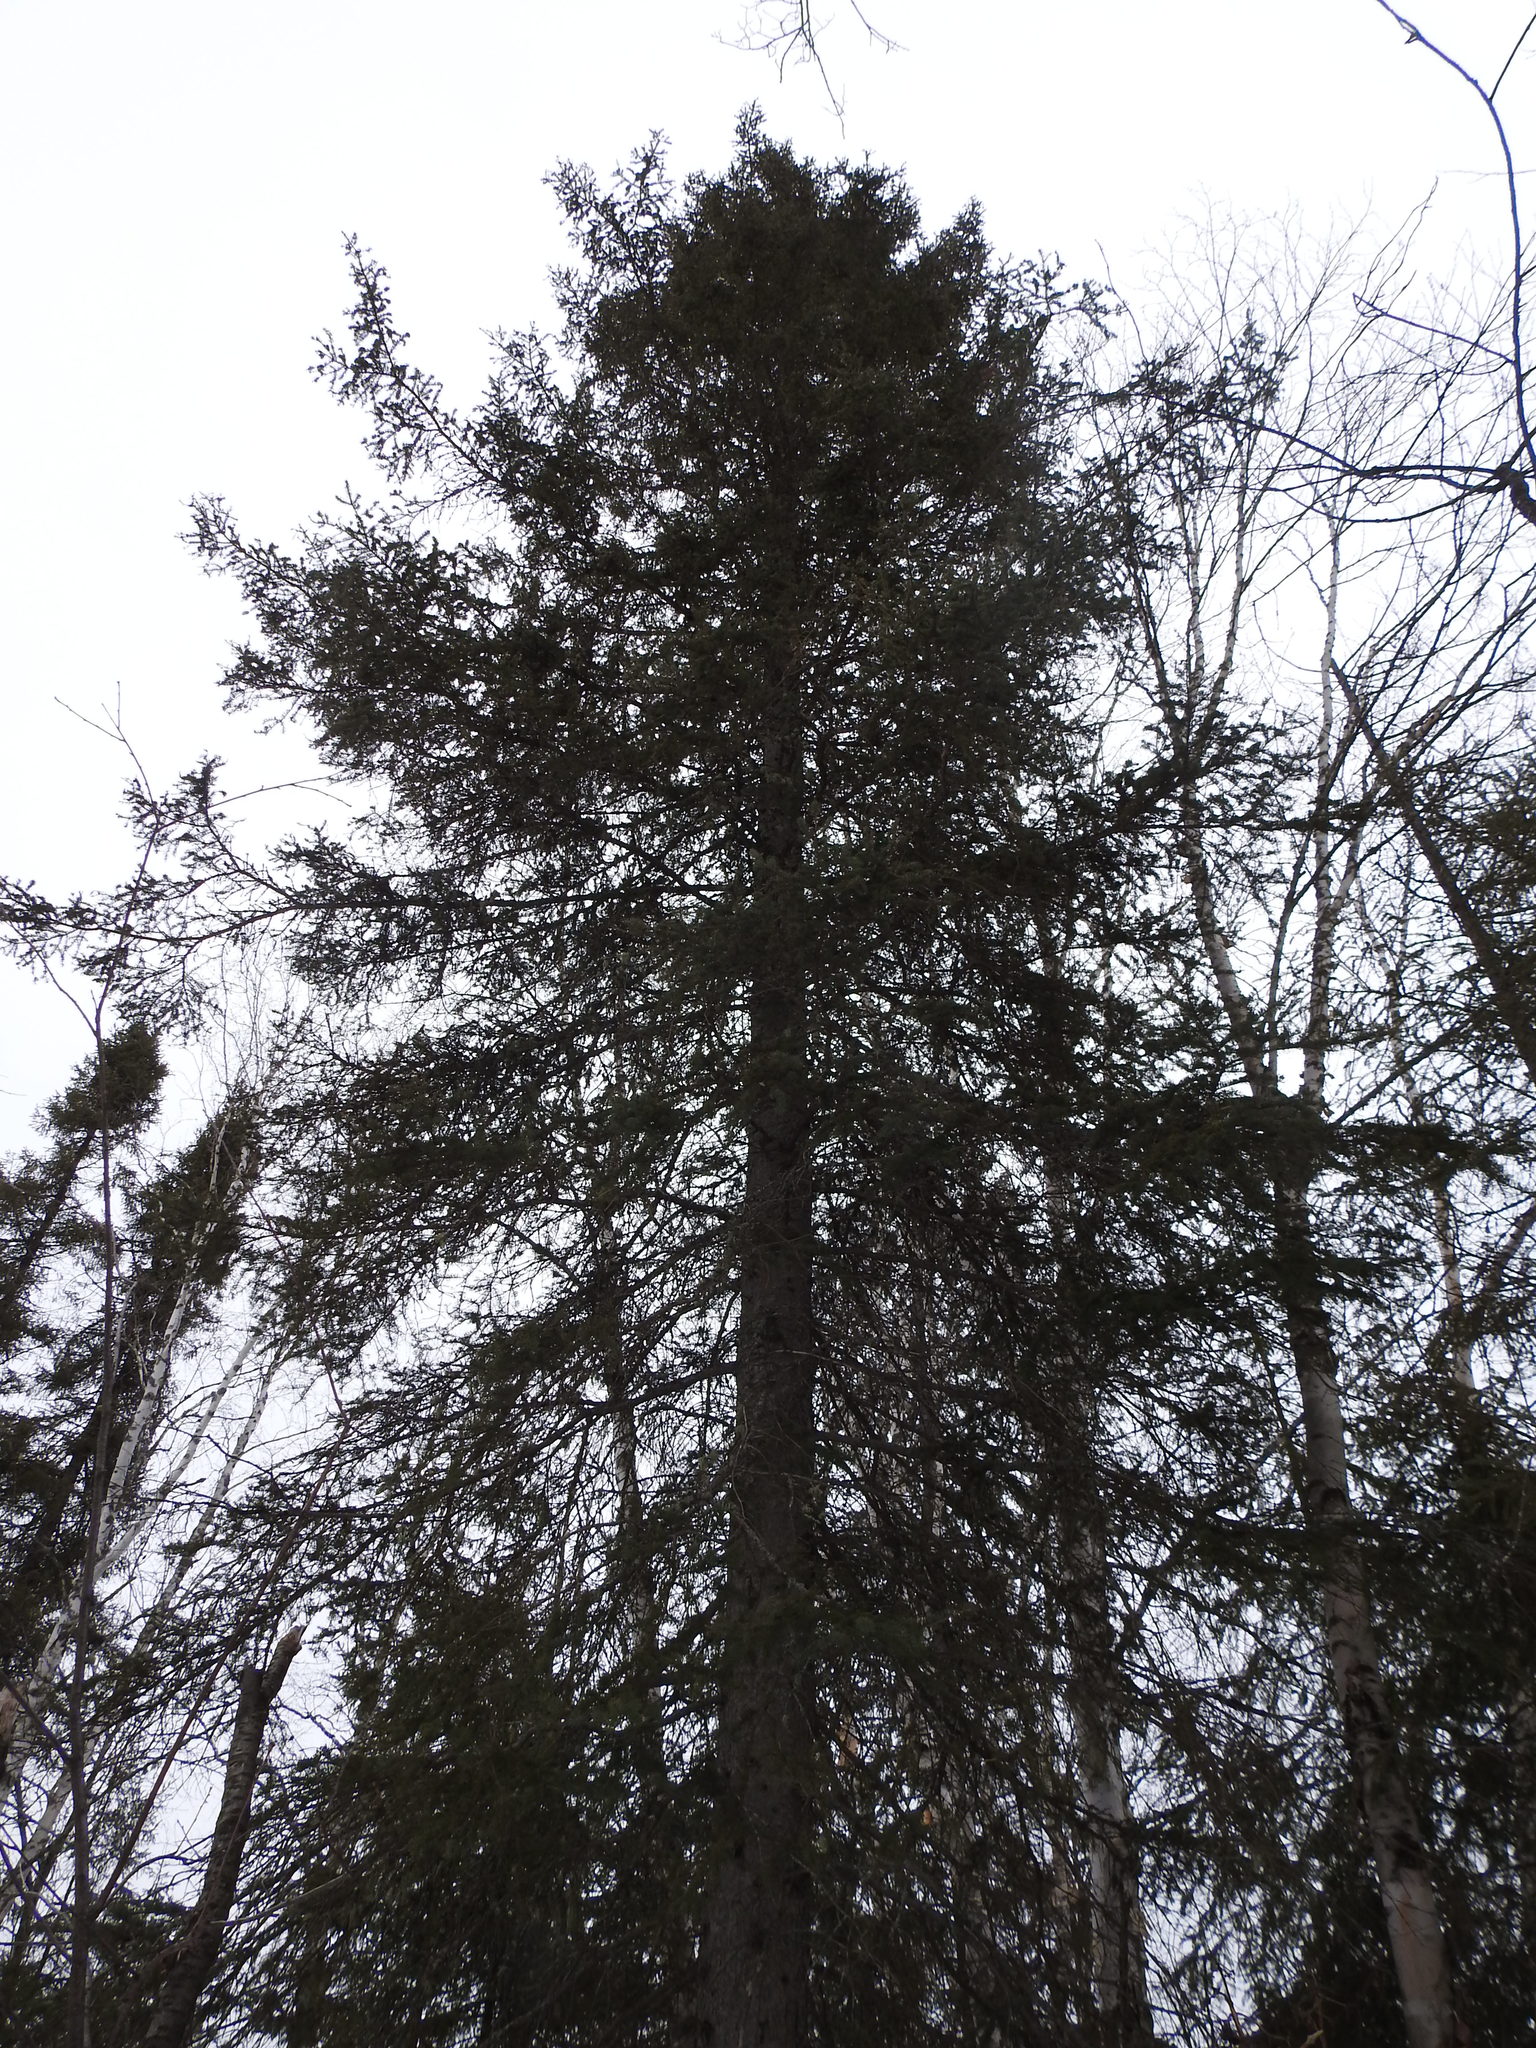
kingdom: Plantae
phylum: Tracheophyta
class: Pinopsida
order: Pinales
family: Pinaceae
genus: Picea
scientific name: Picea glauca
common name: White spruce
